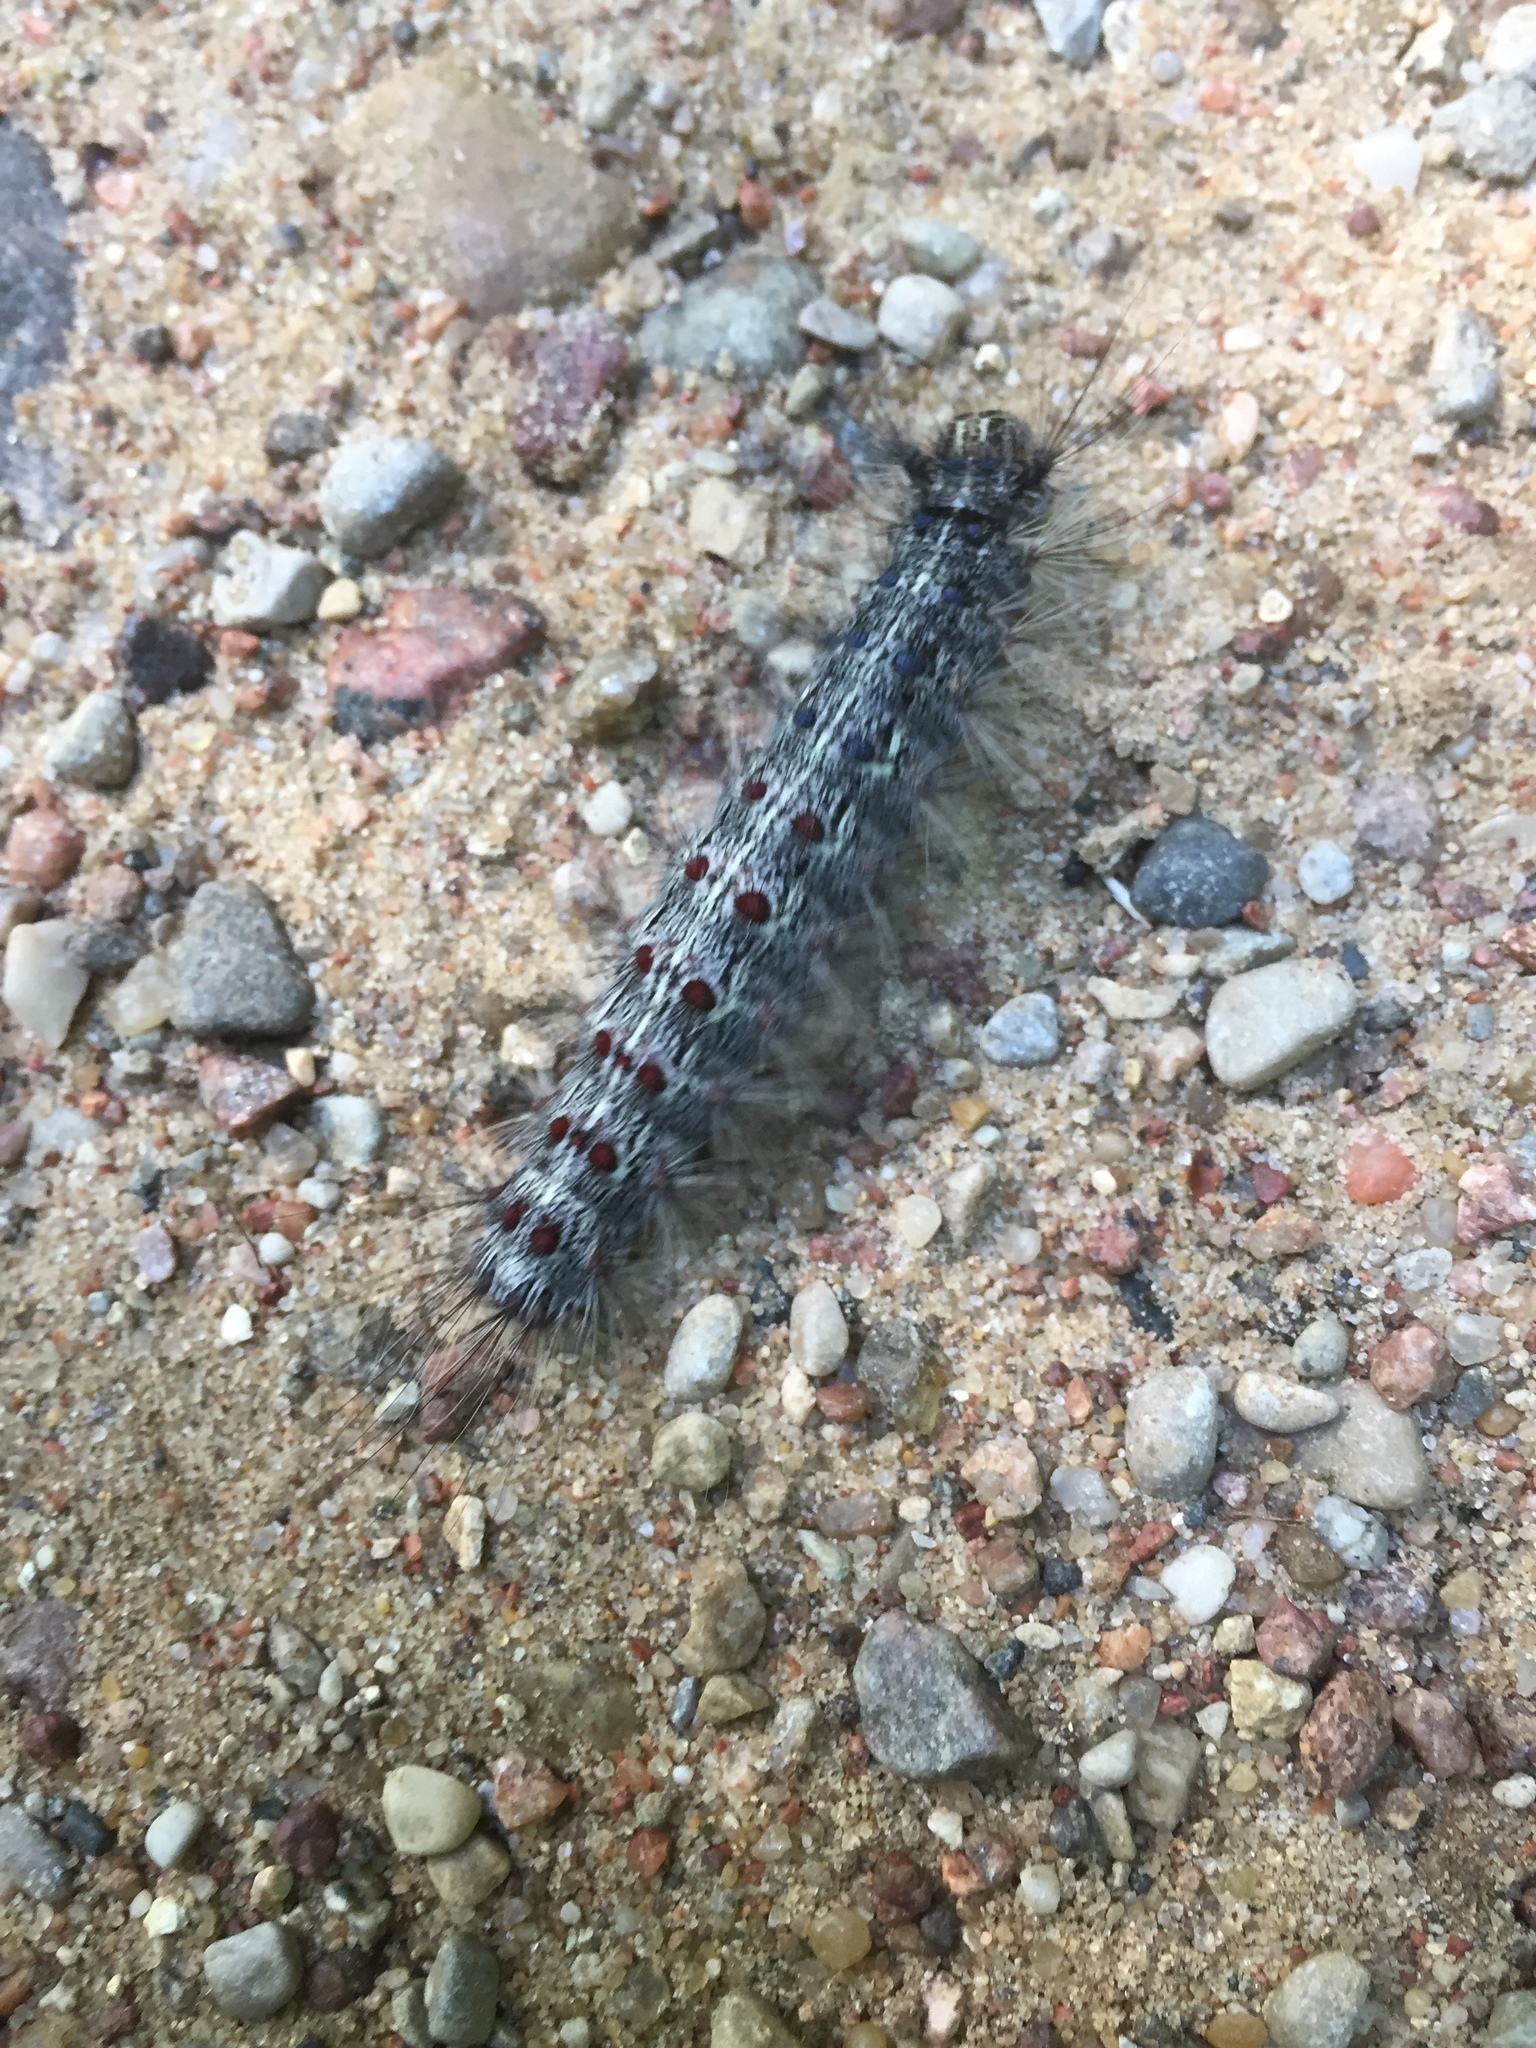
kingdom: Animalia
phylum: Arthropoda
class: Insecta
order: Lepidoptera
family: Erebidae
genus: Lymantria
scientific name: Lymantria dispar
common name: Gypsy moth
